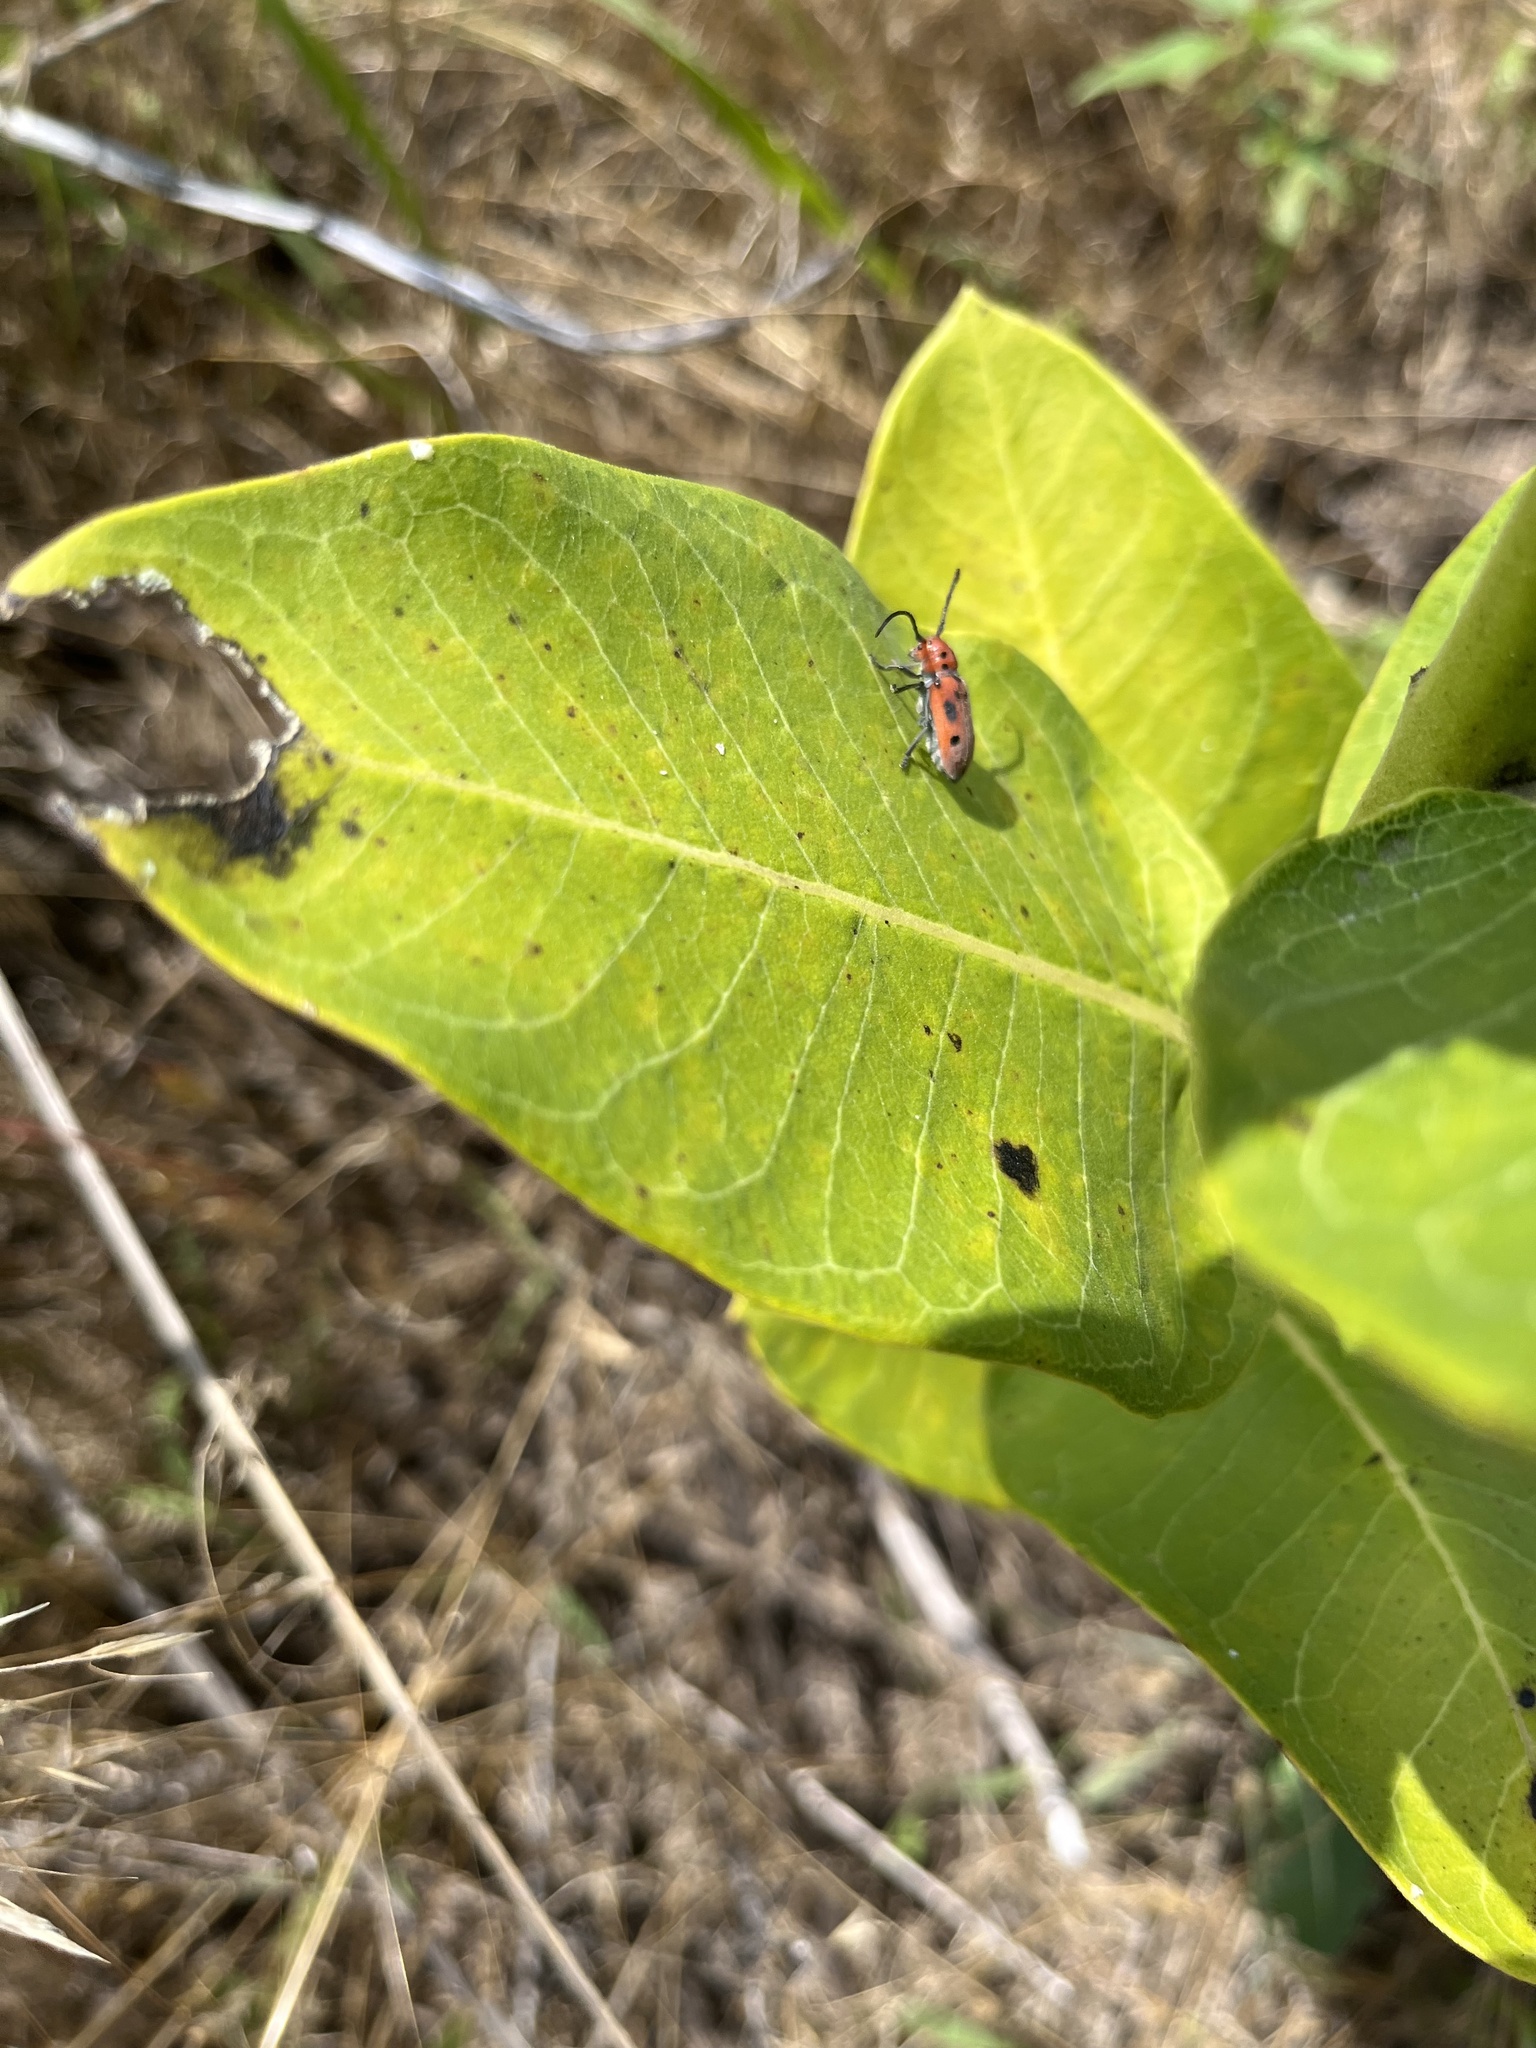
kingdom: Animalia
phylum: Arthropoda
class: Insecta
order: Coleoptera
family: Cerambycidae
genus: Tetraopes
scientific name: Tetraopes tetrophthalmus
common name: Red milkweed beetle
